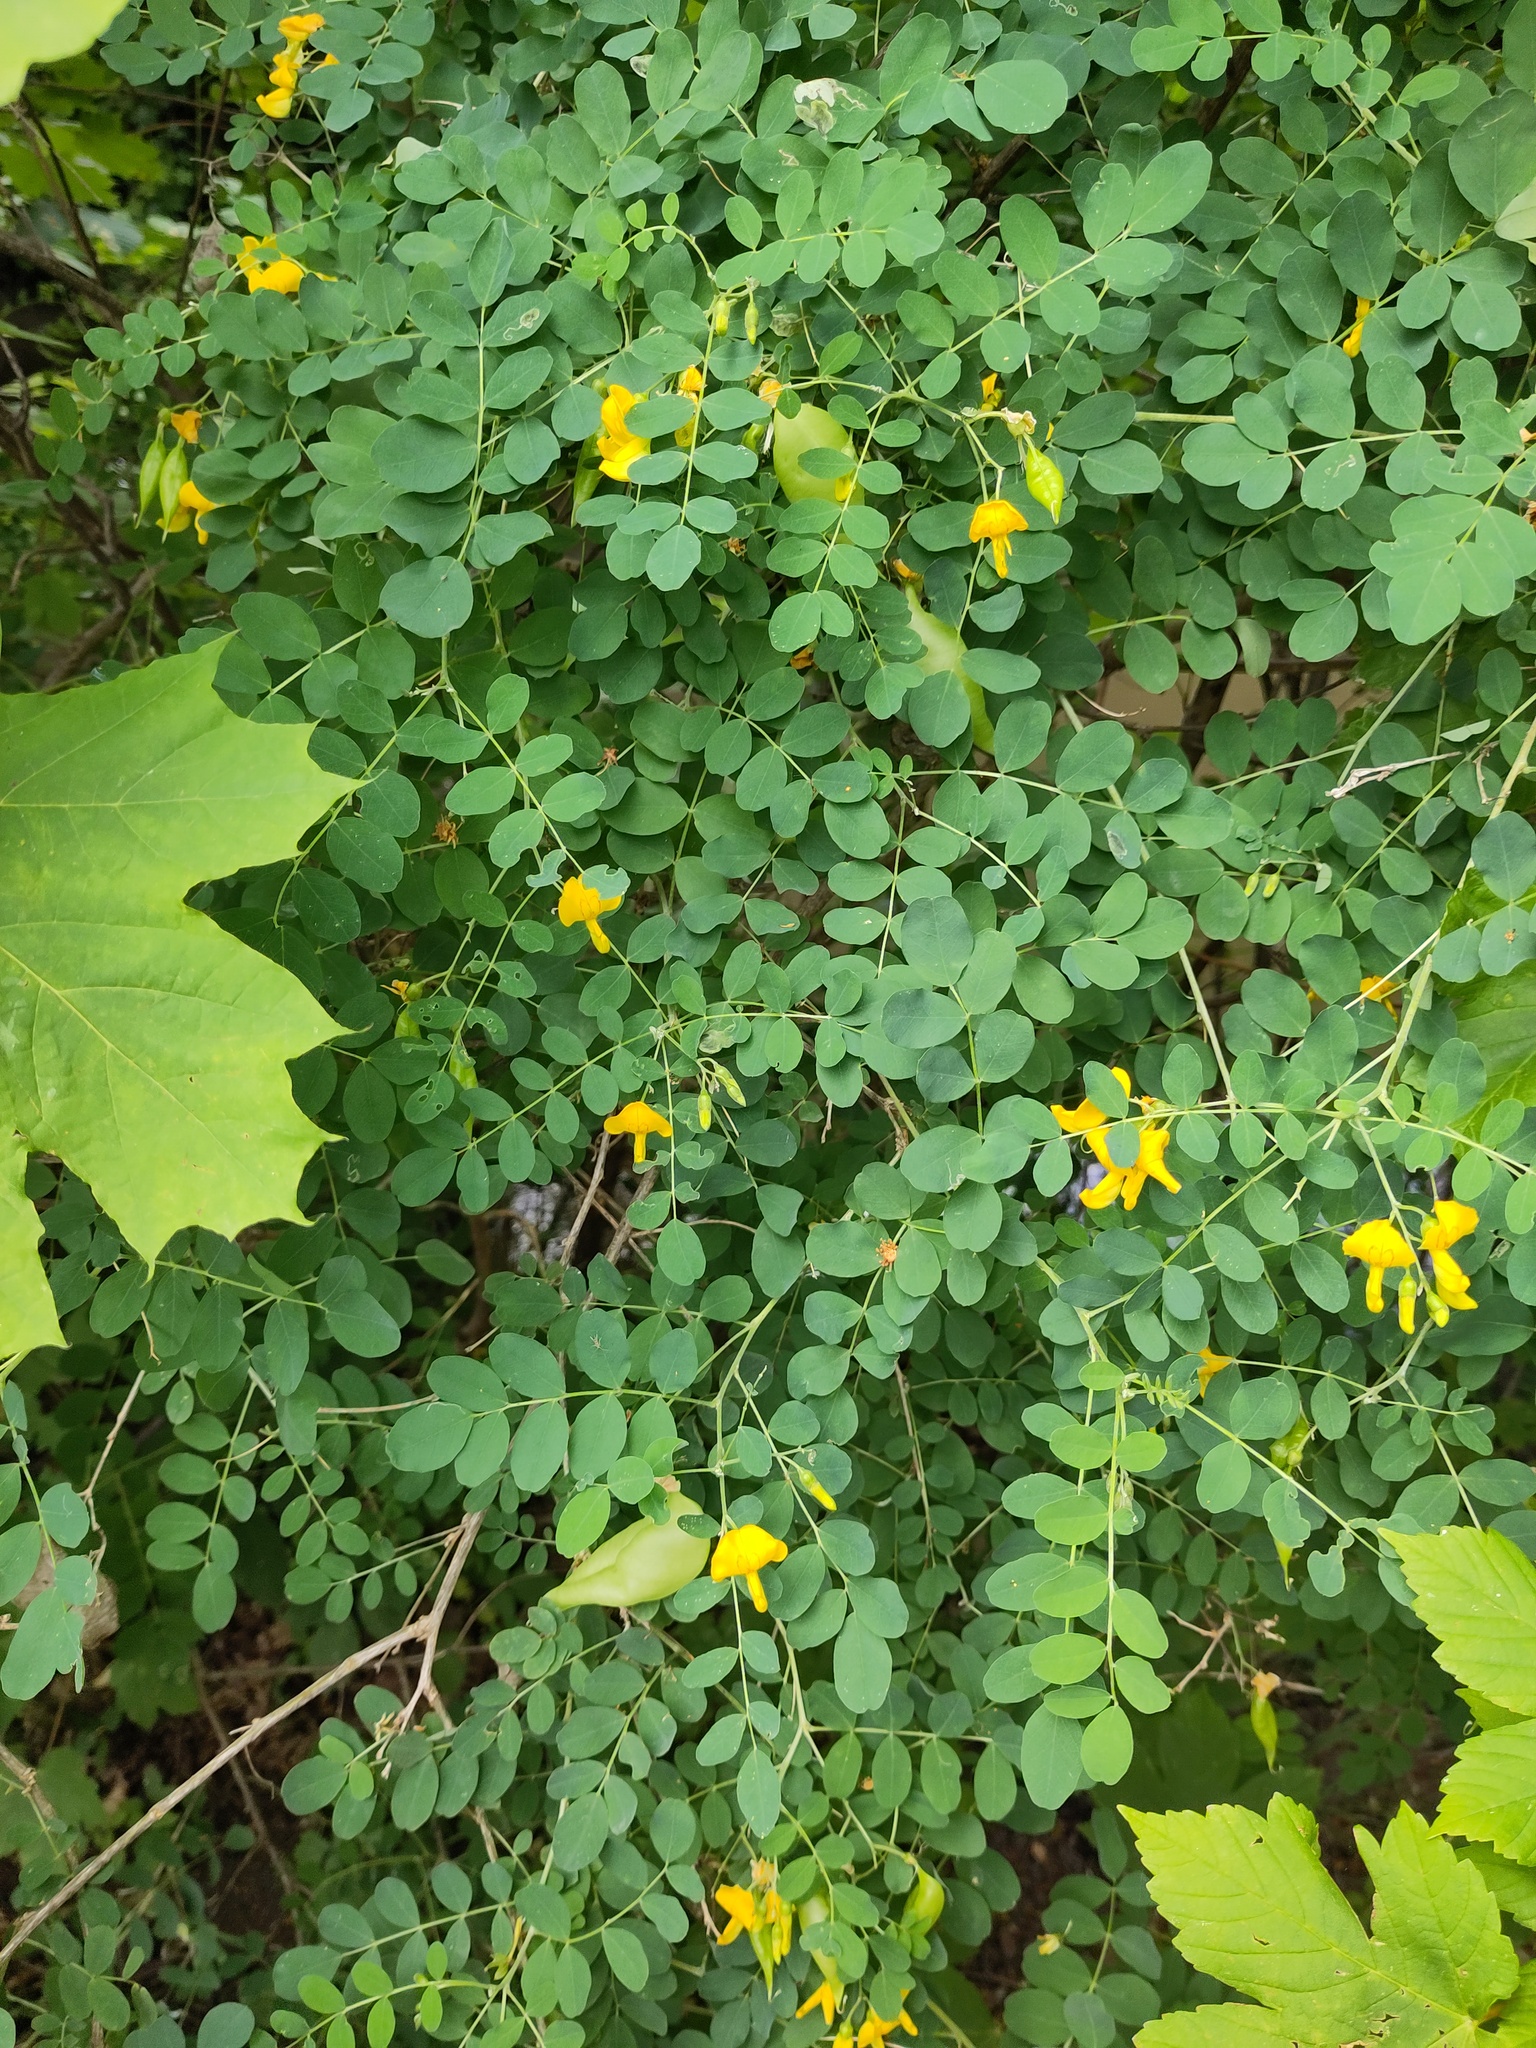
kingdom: Plantae
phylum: Tracheophyta
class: Magnoliopsida
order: Fabales
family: Fabaceae
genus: Colutea
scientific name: Colutea arborescens
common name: Bladder-senna
